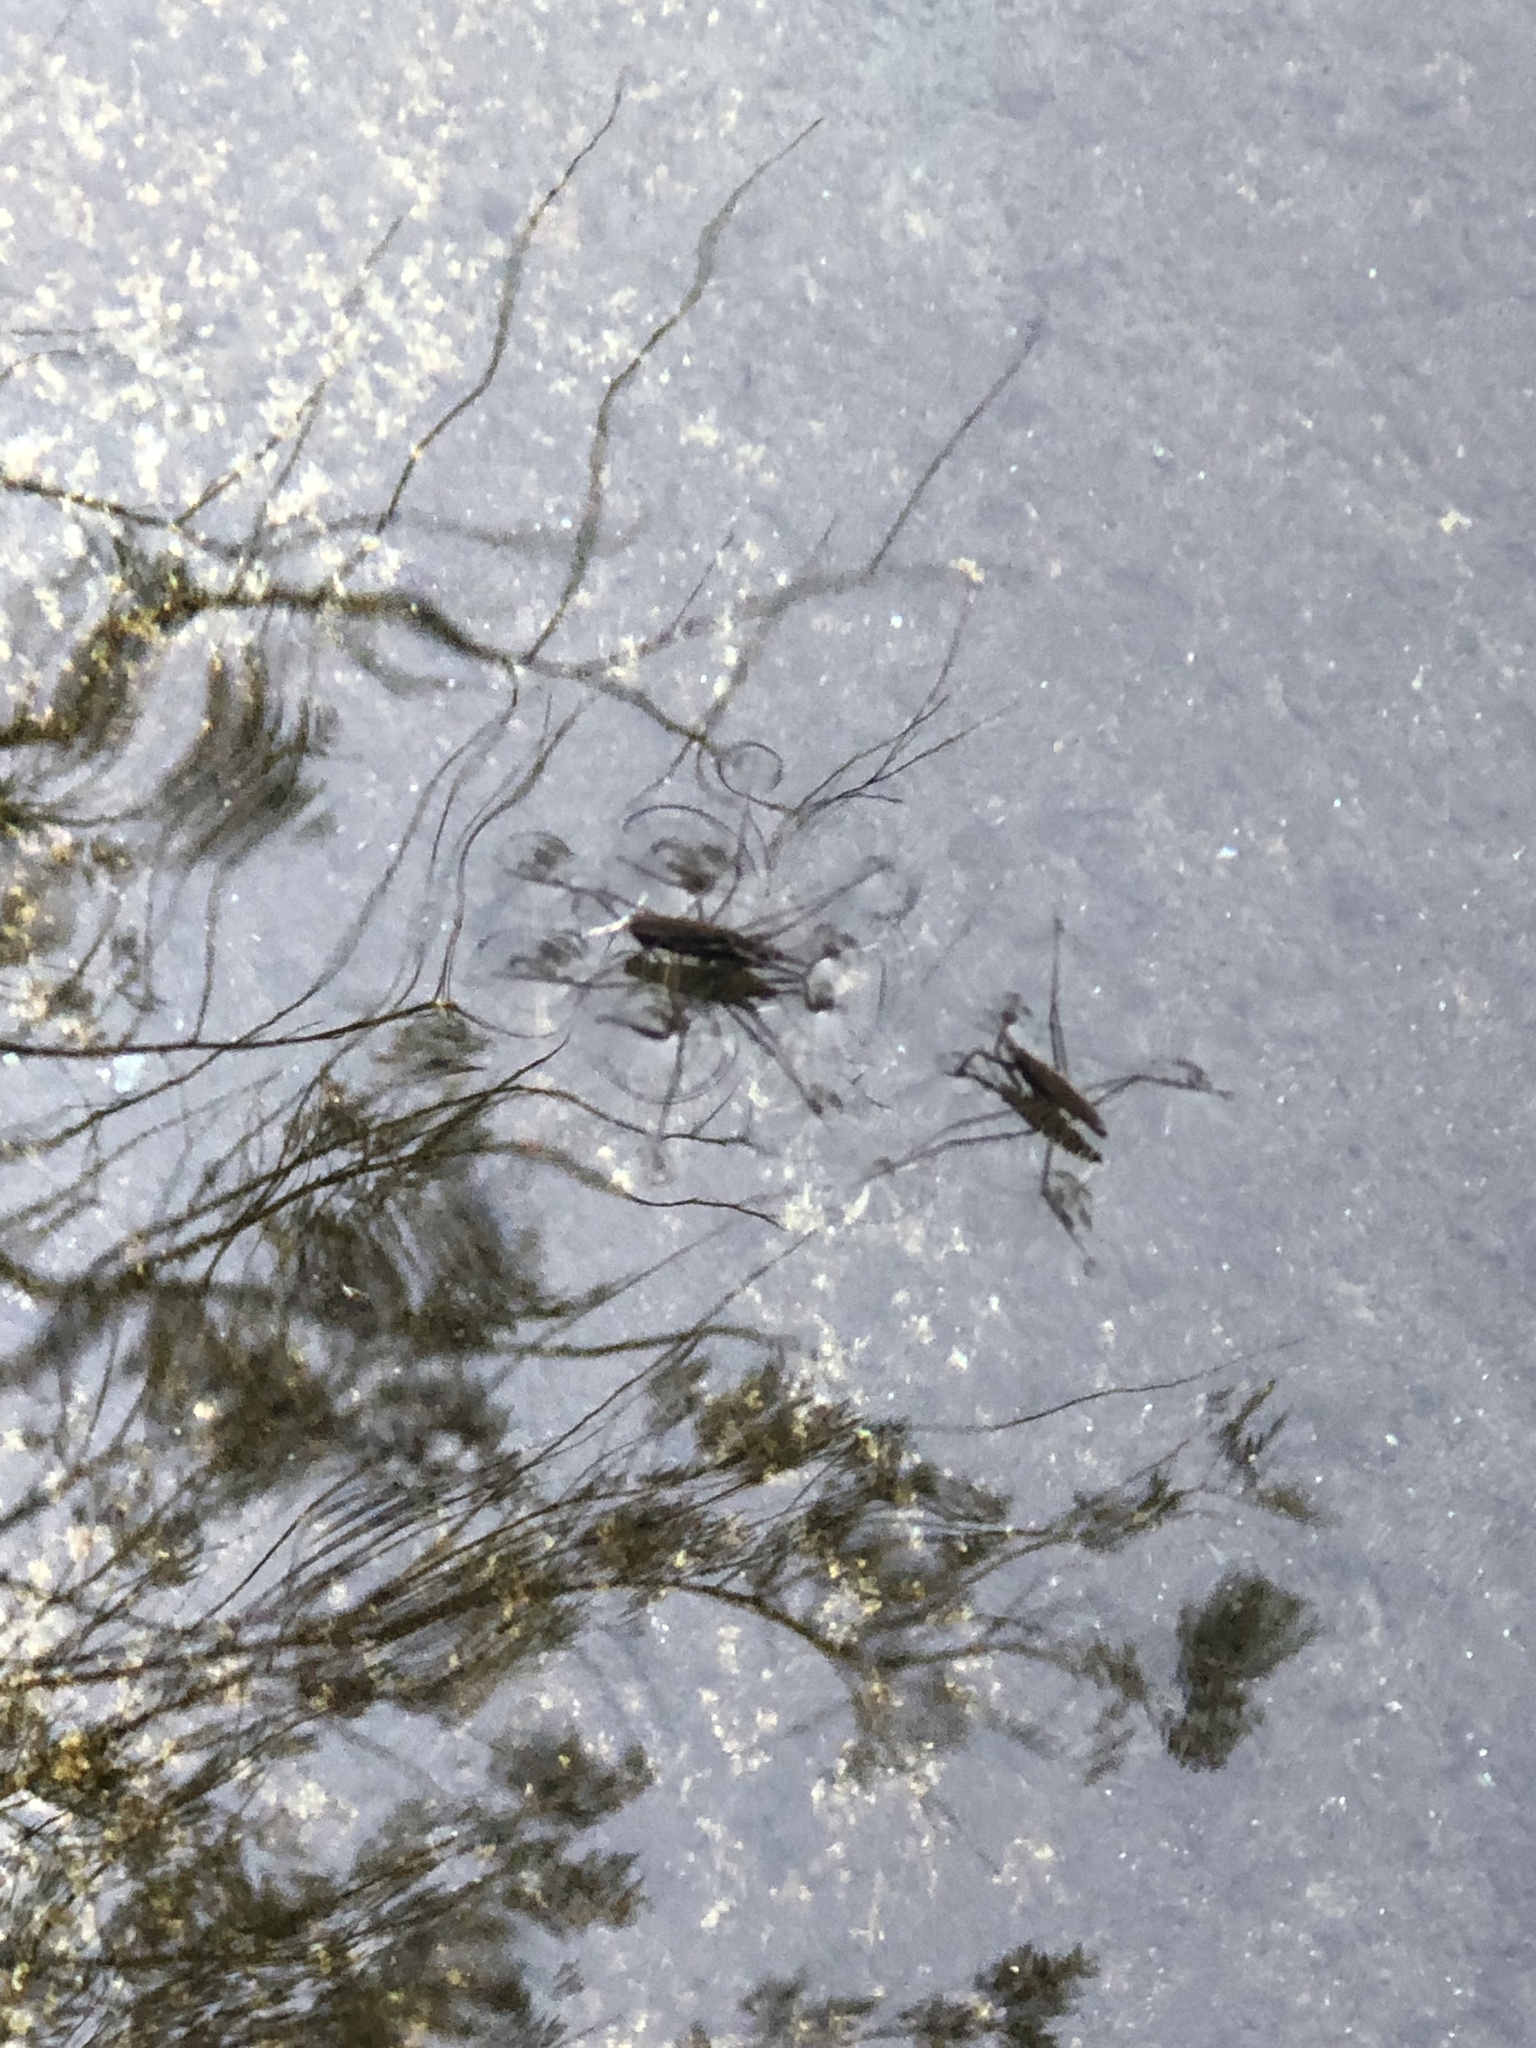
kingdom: Animalia
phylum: Arthropoda
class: Insecta
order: Hemiptera
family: Gerridae
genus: Aquarius
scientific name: Aquarius remigis
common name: Common water strider
